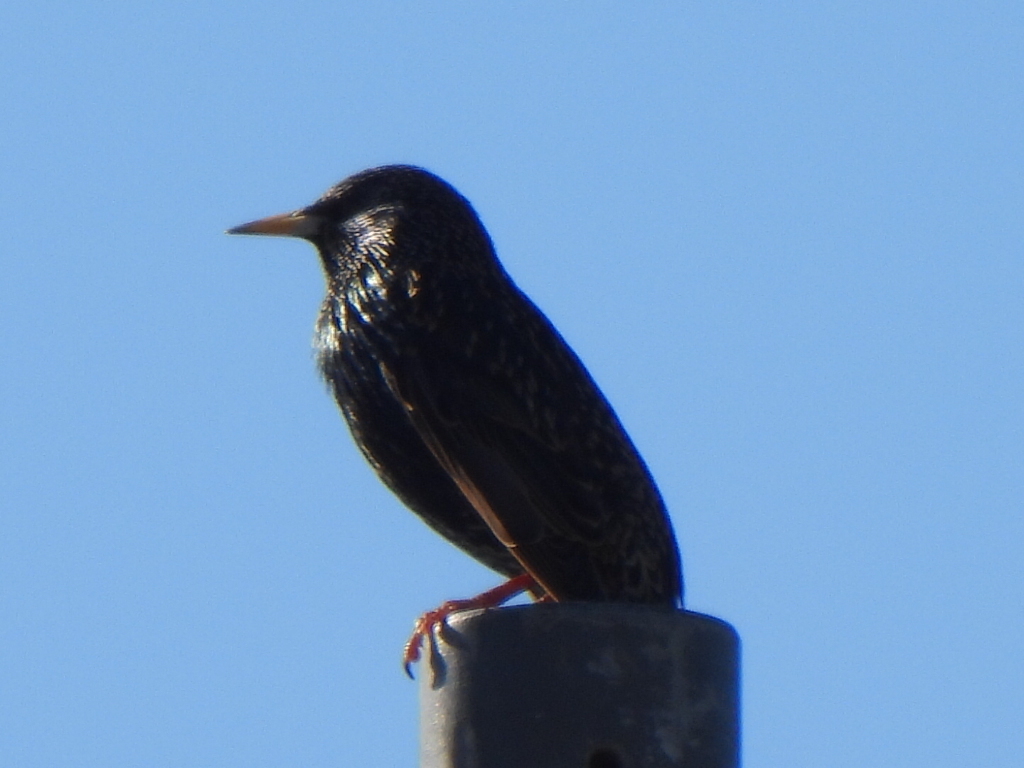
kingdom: Animalia
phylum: Chordata
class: Aves
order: Passeriformes
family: Sturnidae
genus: Sturnus
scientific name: Sturnus vulgaris
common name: Common starling
